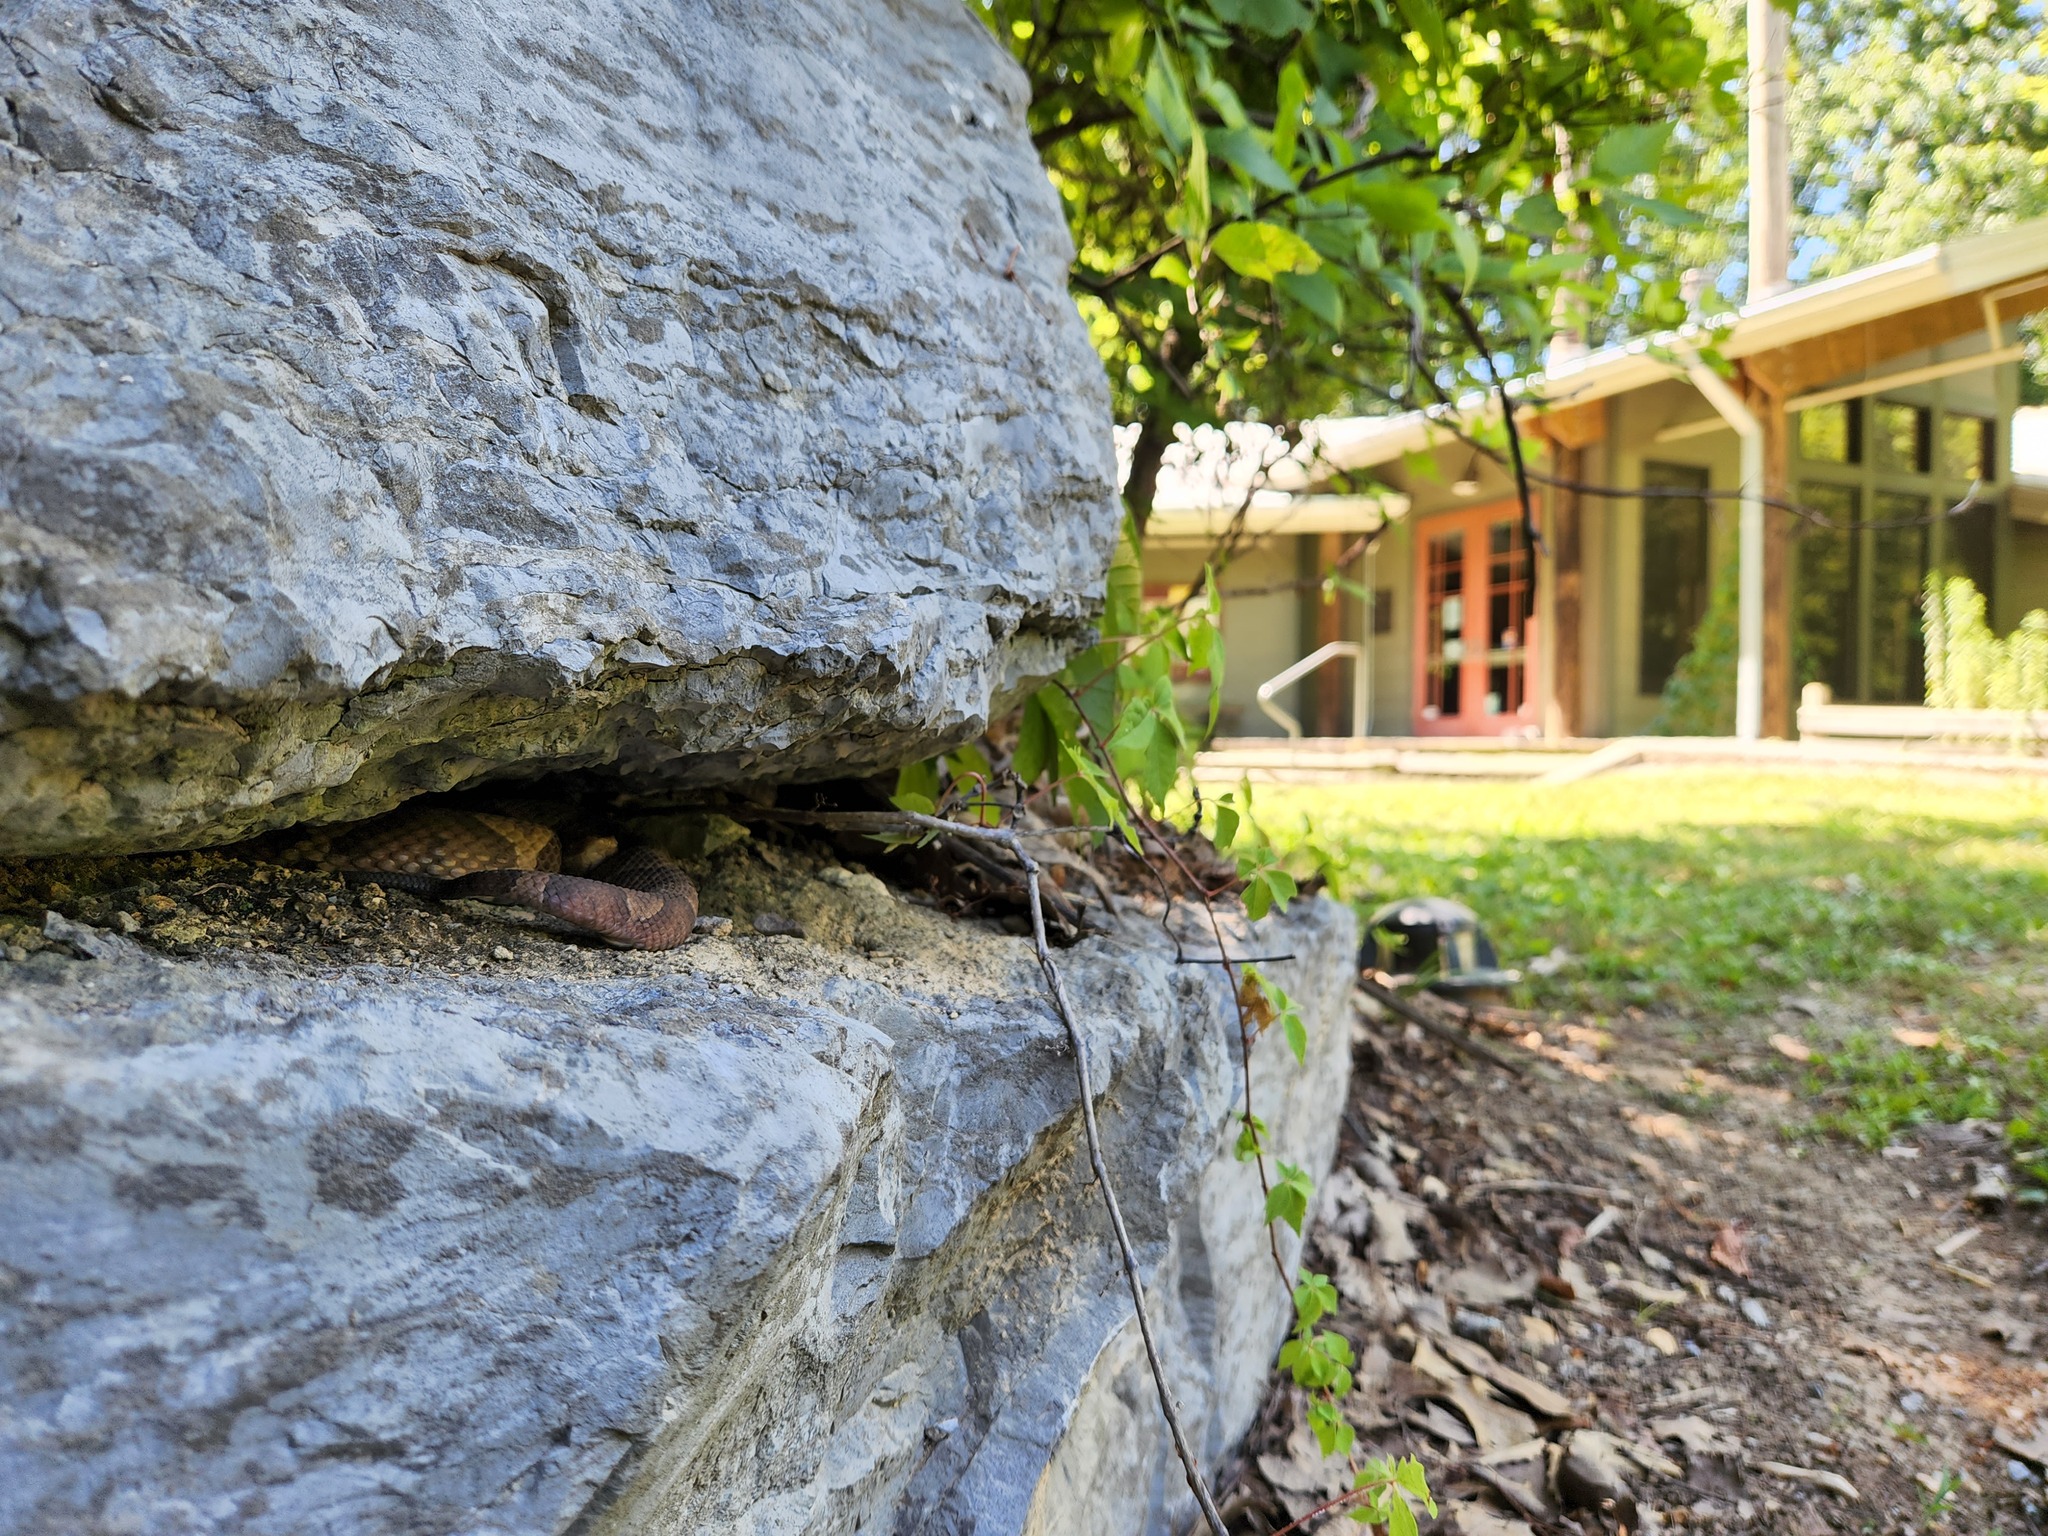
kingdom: Animalia
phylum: Chordata
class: Squamata
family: Viperidae
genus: Agkistrodon
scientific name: Agkistrodon contortrix
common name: Northern copperhead
